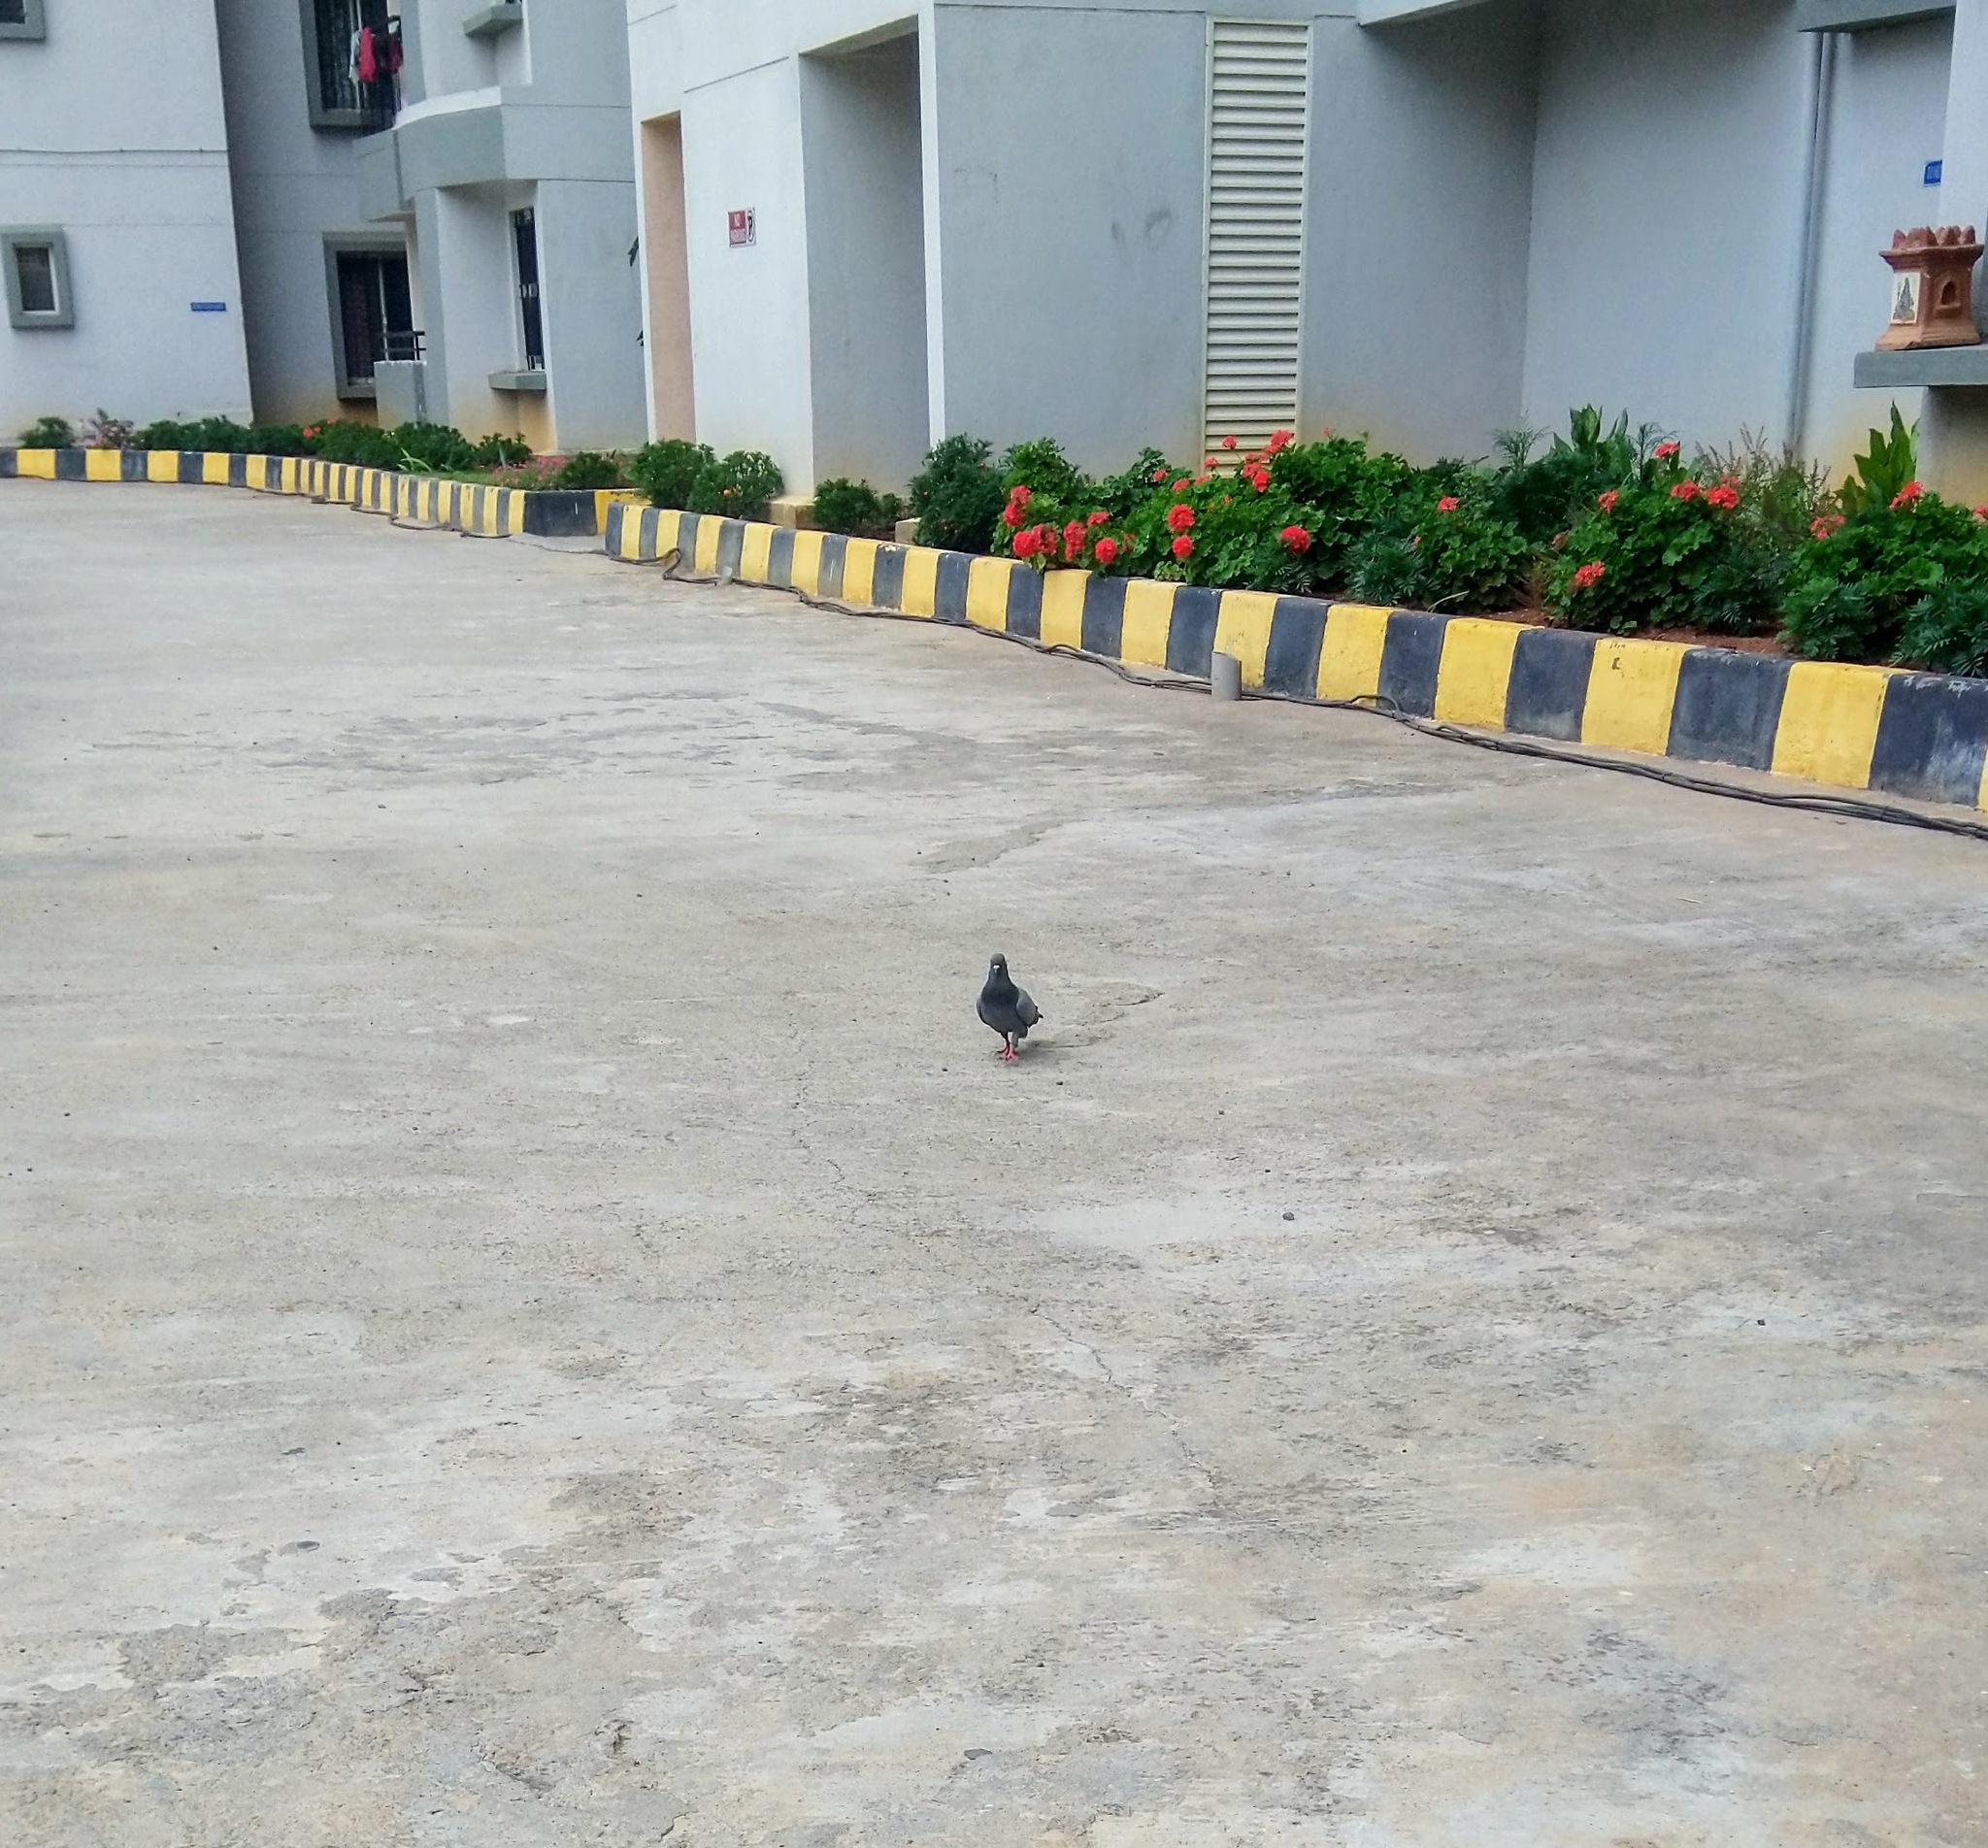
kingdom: Animalia
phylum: Chordata
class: Aves
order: Columbiformes
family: Columbidae
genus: Columba
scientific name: Columba livia
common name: Rock pigeon
